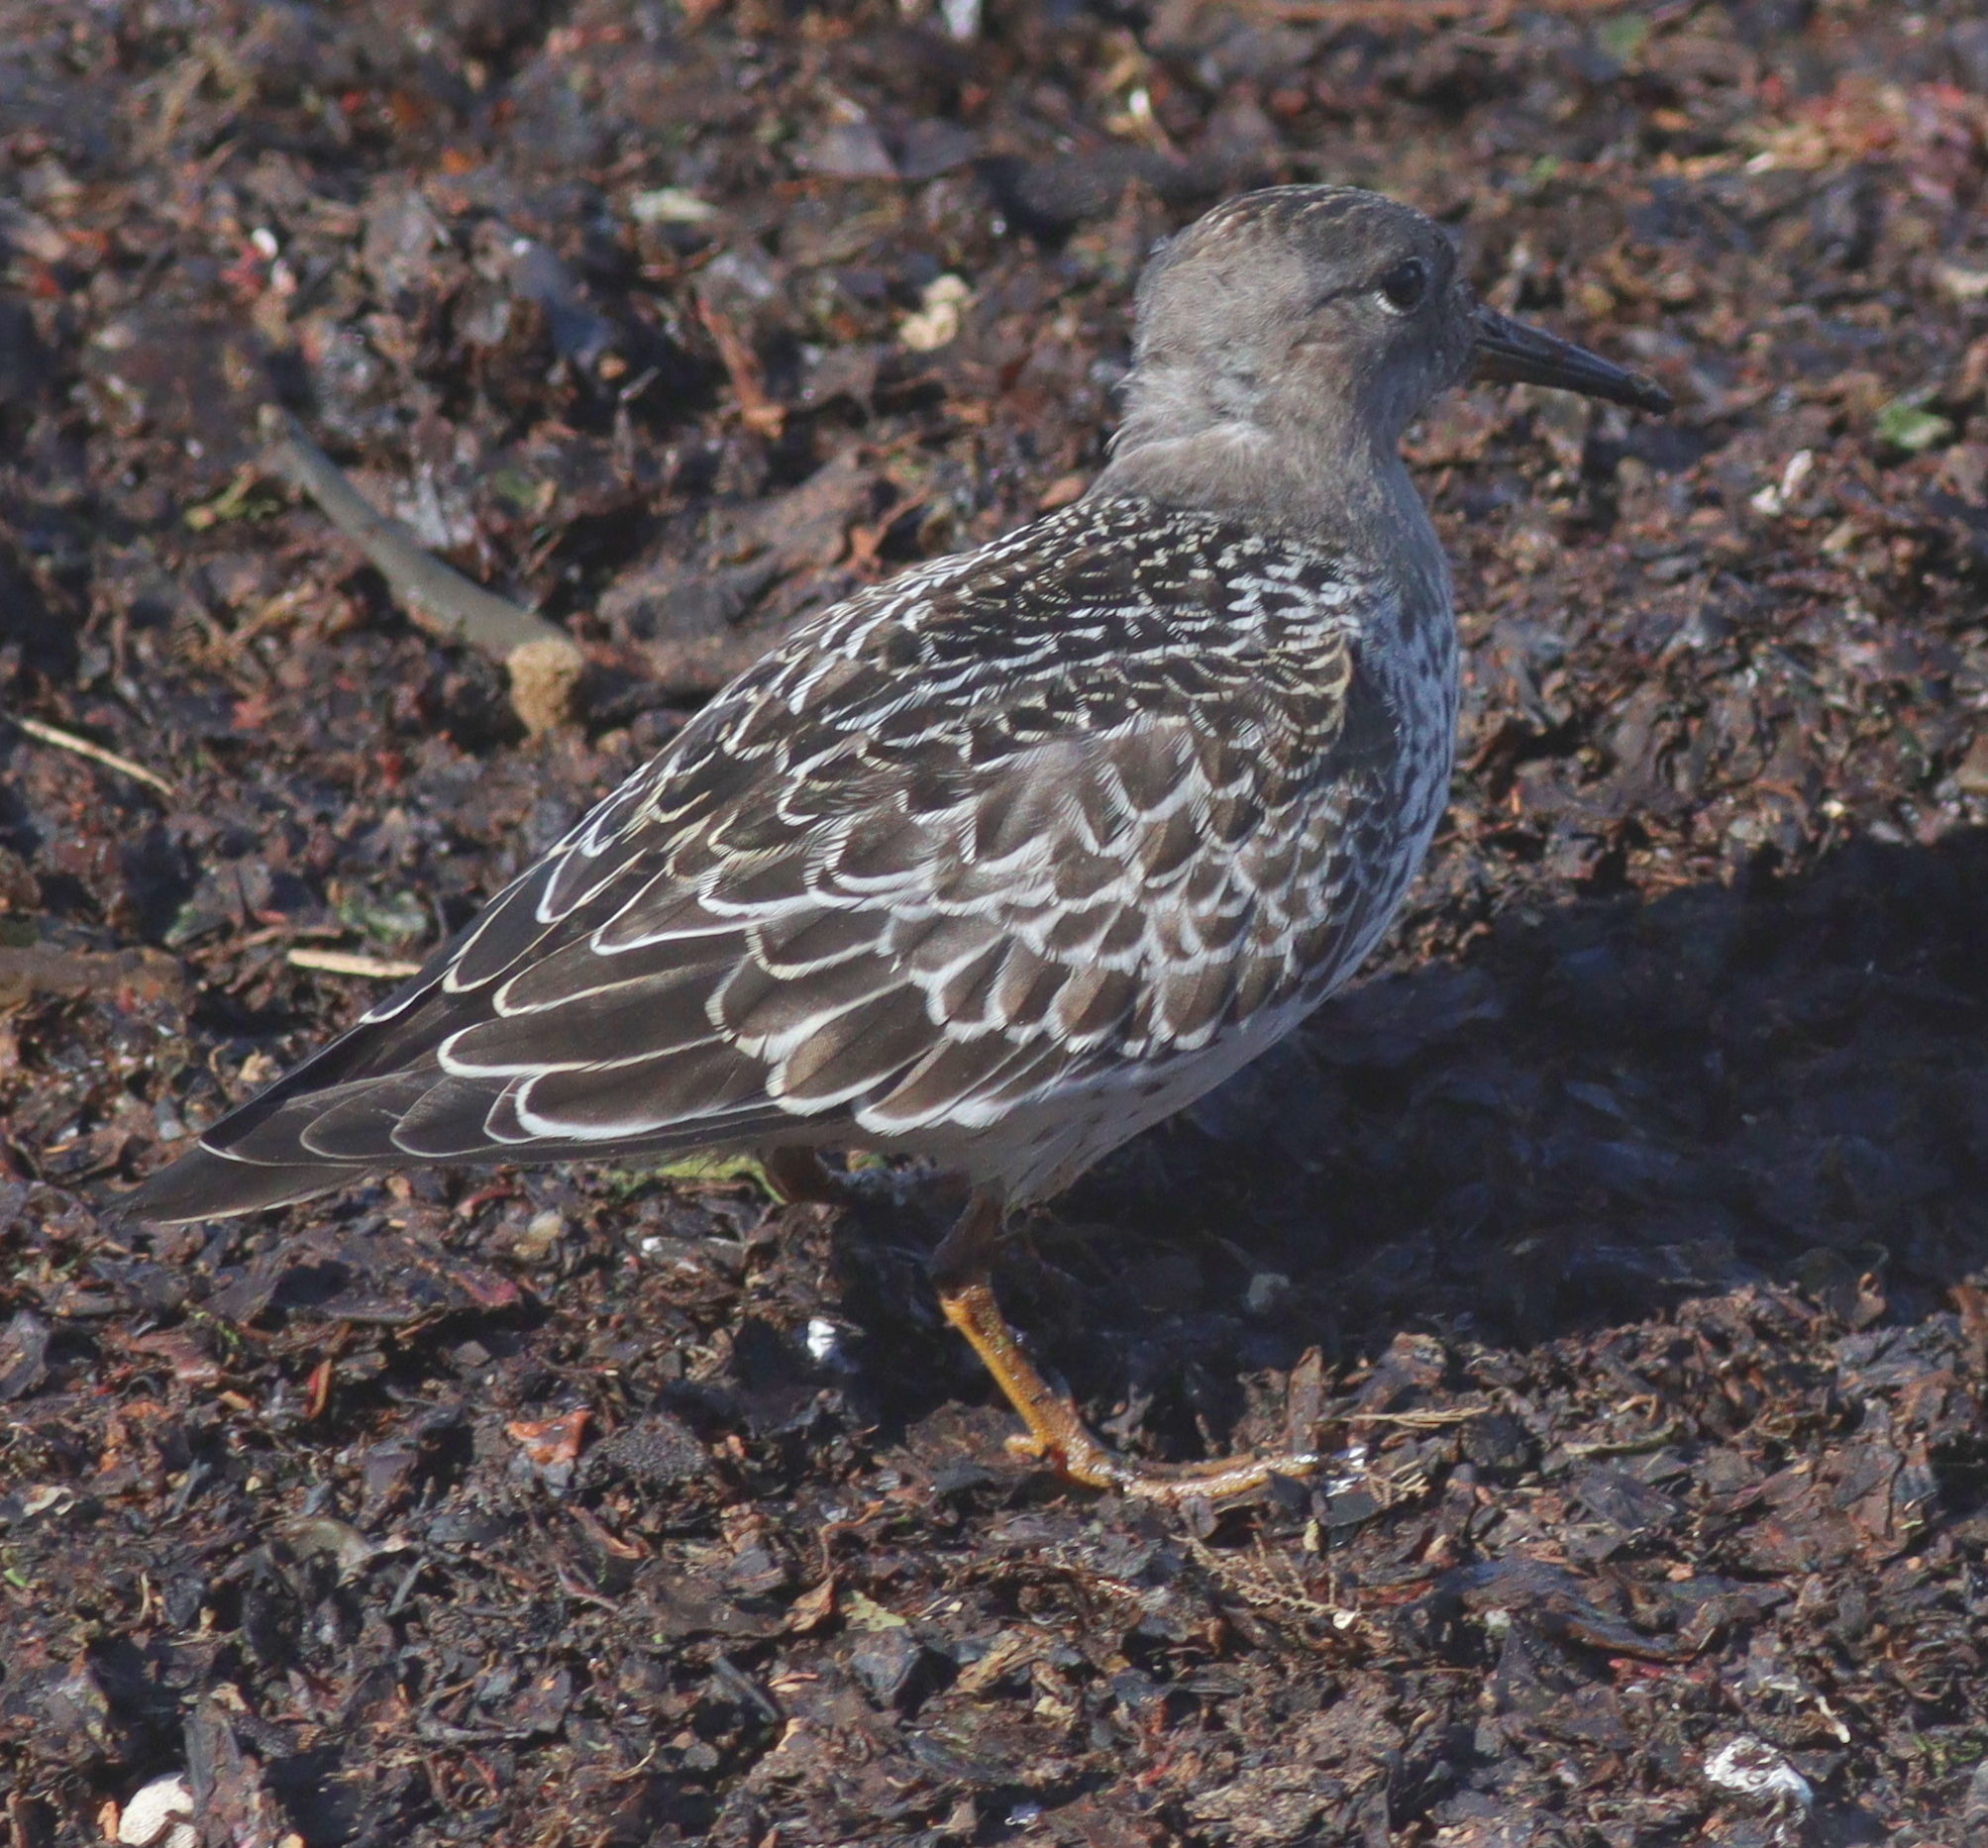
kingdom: Animalia
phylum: Chordata
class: Aves
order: Charadriiformes
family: Scolopacidae
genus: Calidris
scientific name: Calidris maritima
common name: Purple sandpiper
